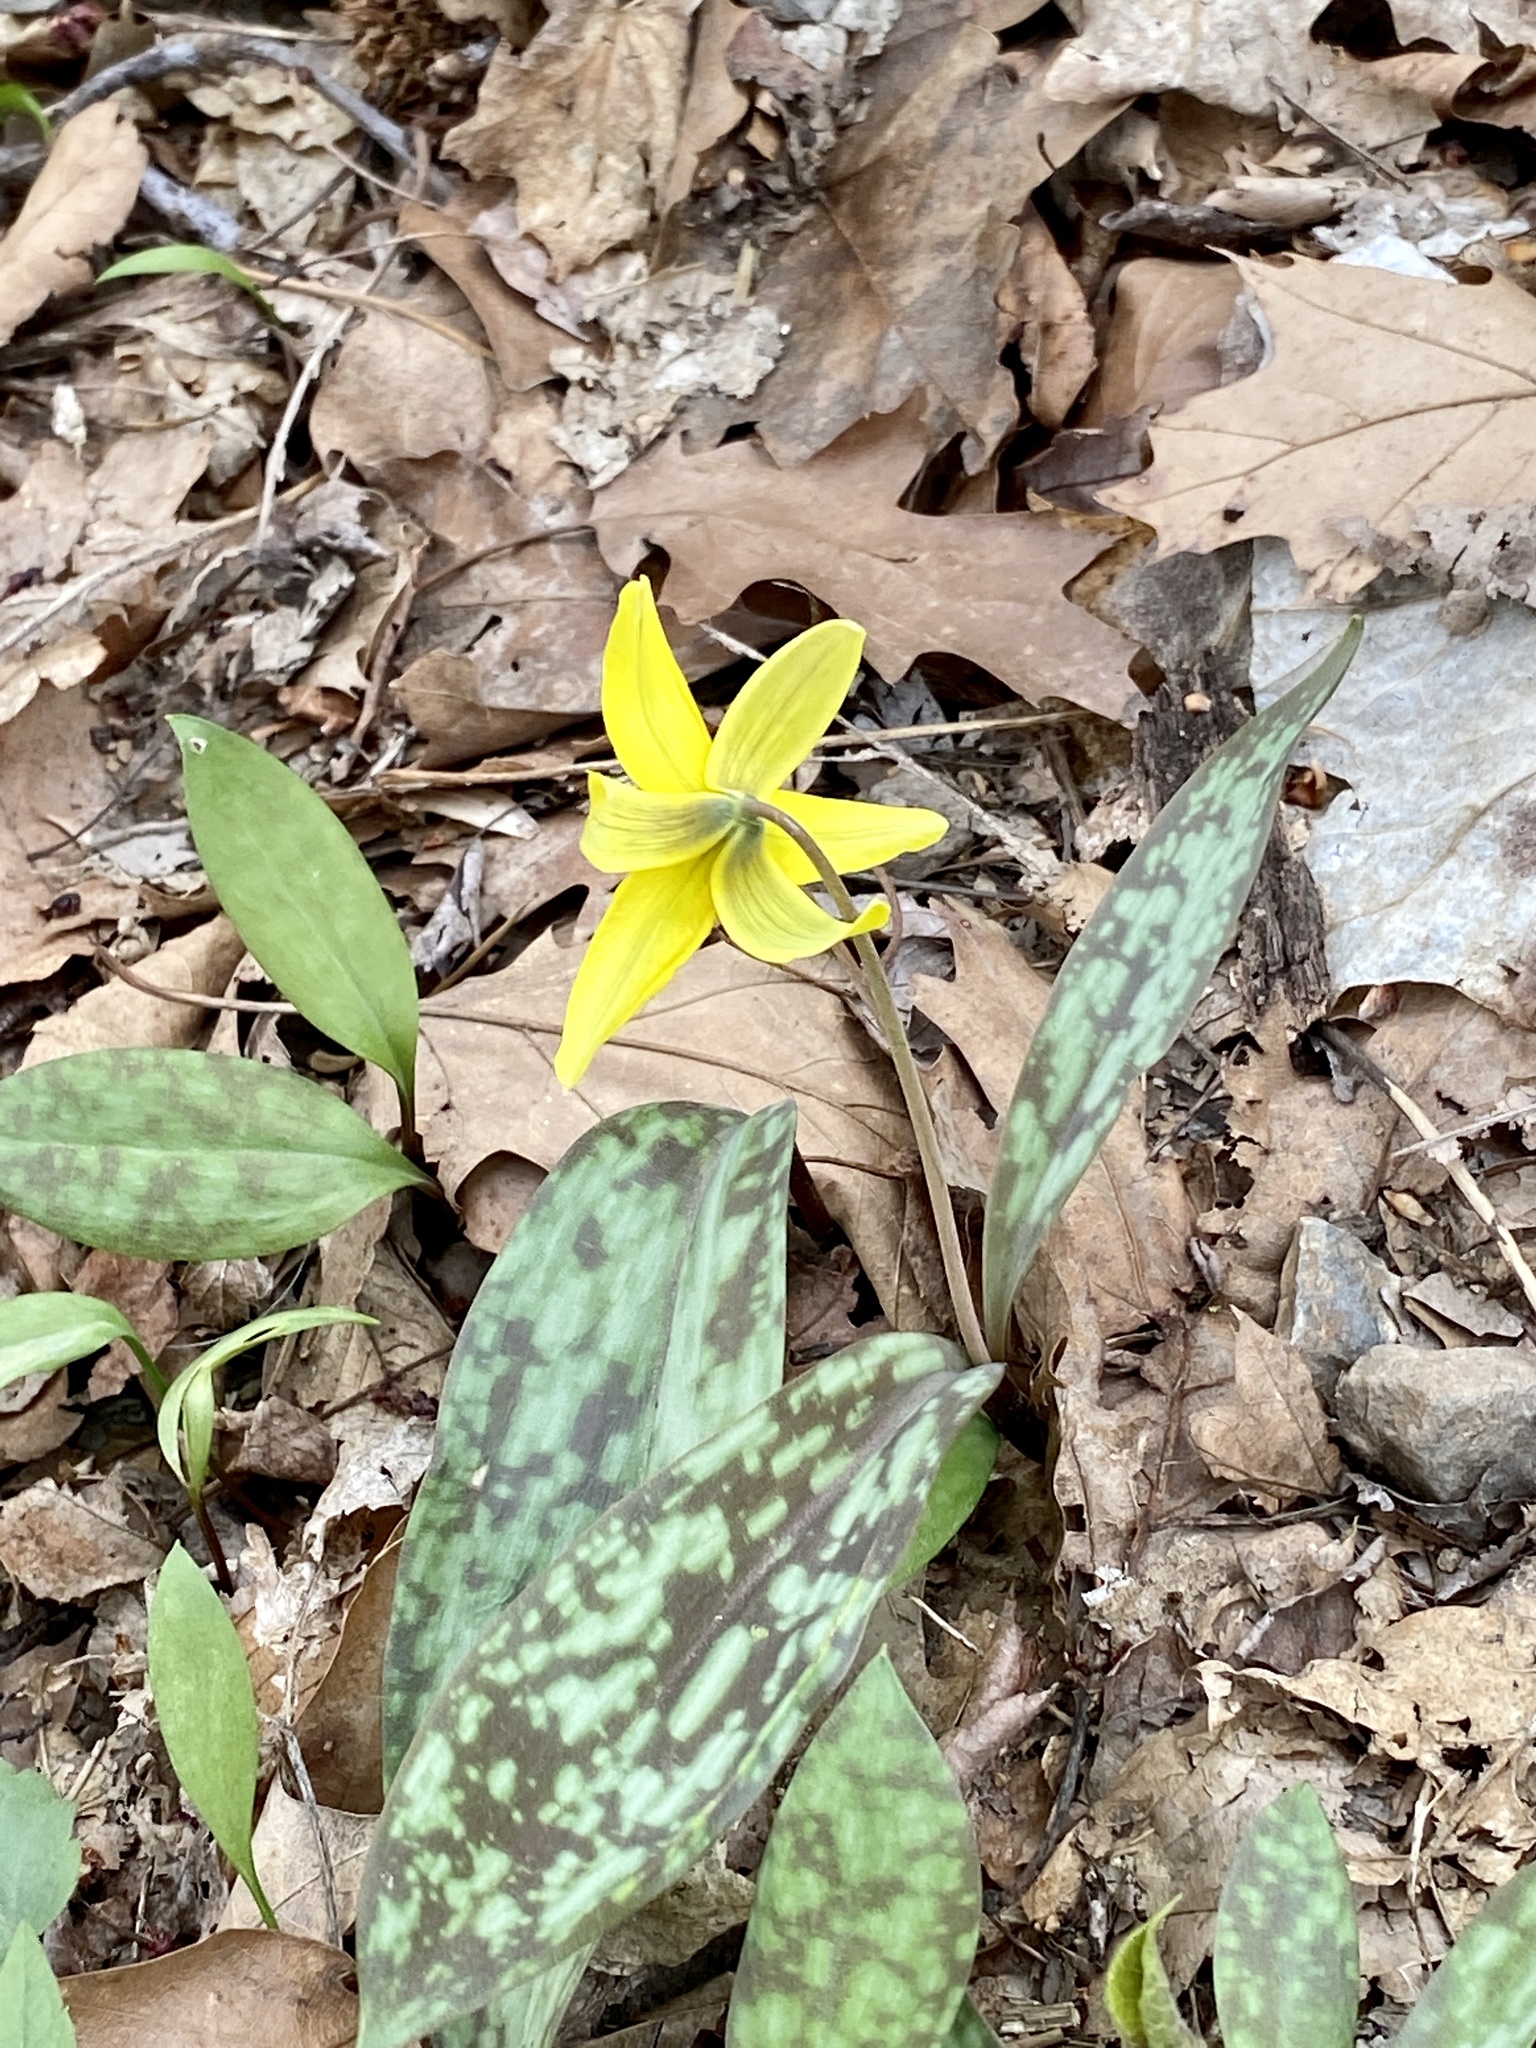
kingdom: Plantae
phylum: Tracheophyta
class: Liliopsida
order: Liliales
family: Liliaceae
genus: Erythronium
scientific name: Erythronium americanum
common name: Yellow adder's-tongue
